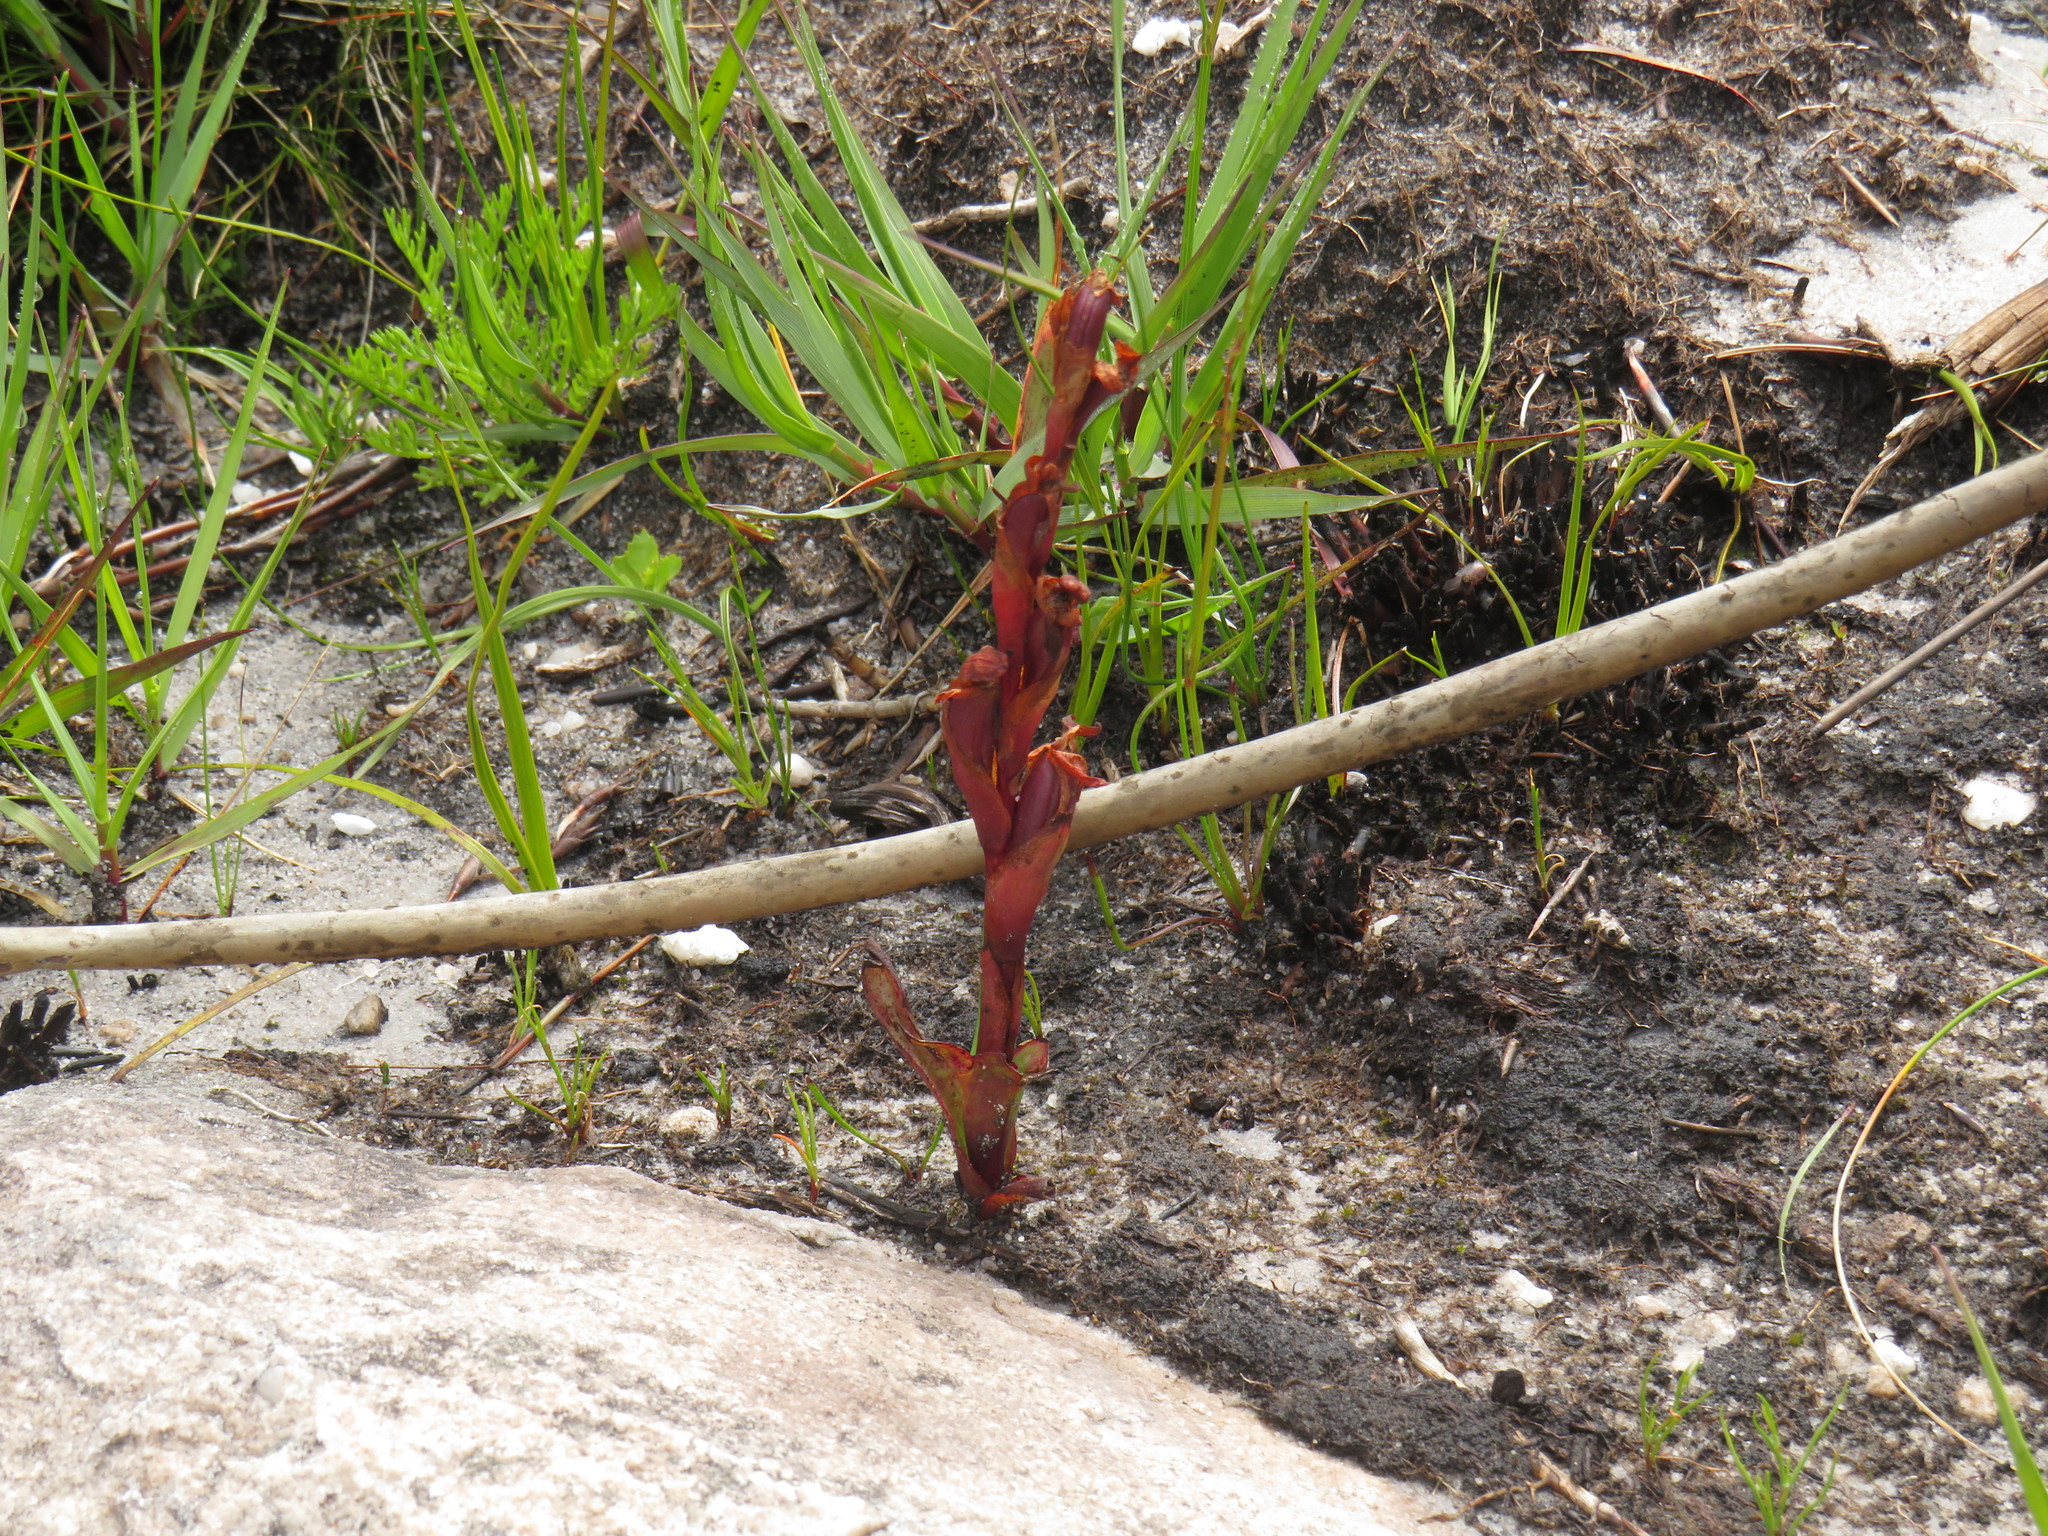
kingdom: Plantae
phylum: Tracheophyta
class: Liliopsida
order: Asparagales
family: Orchidaceae
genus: Disa
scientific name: Disa ophrydea
